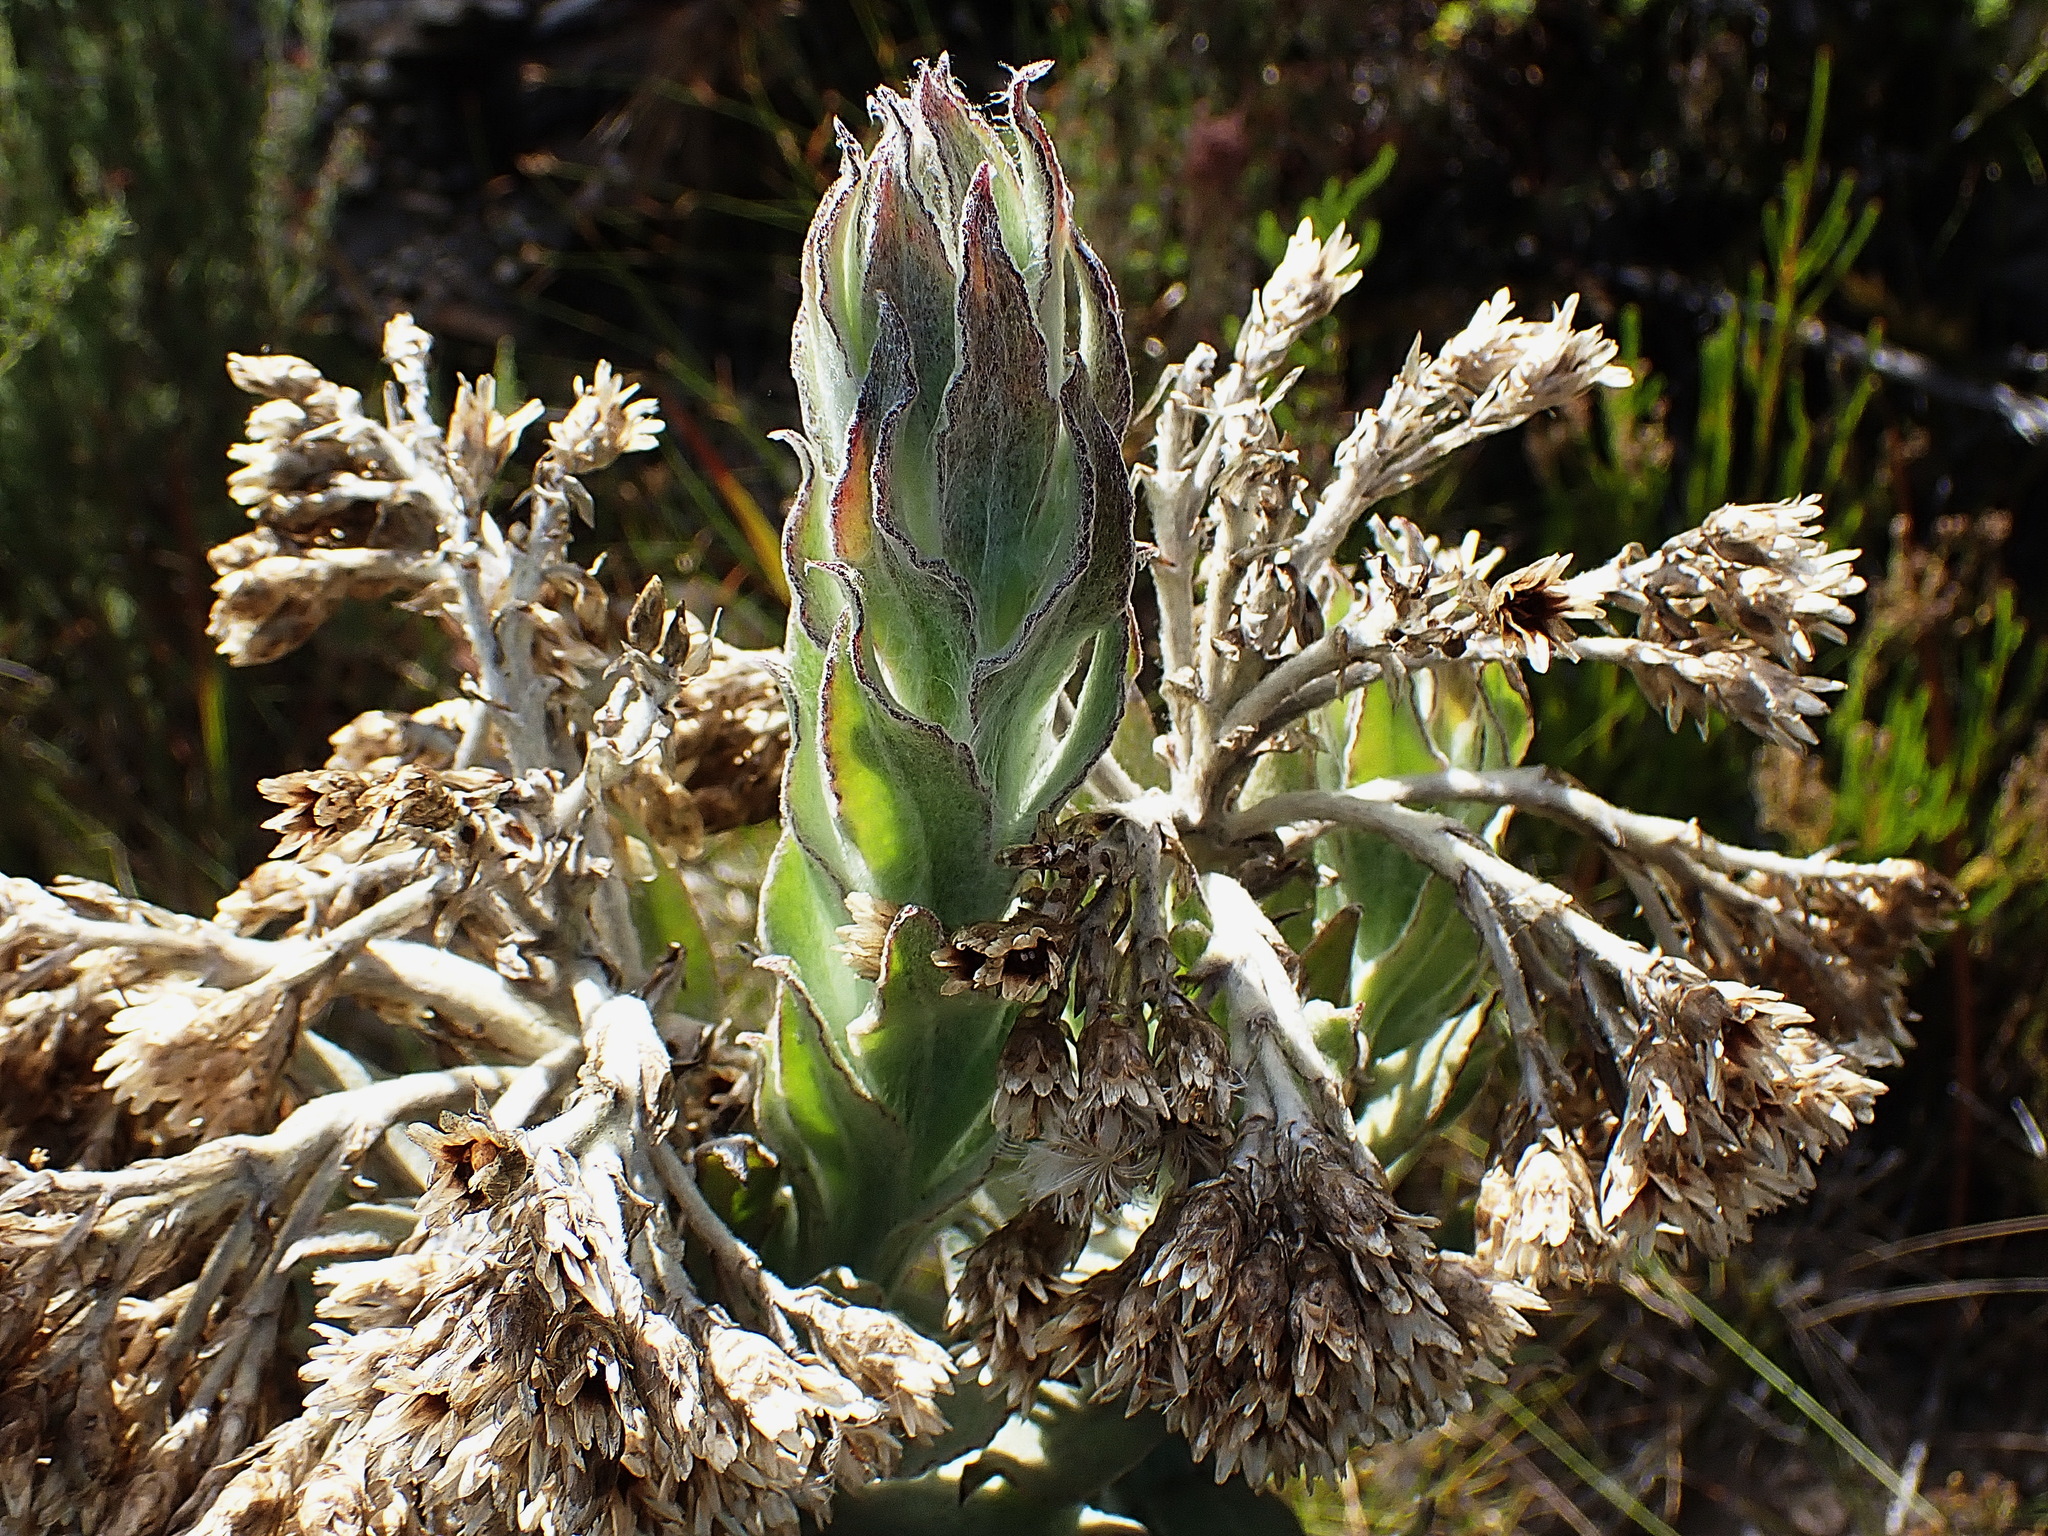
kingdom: Plantae
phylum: Tracheophyta
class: Magnoliopsida
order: Asterales
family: Asteraceae
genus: Syncarpha
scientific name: Syncarpha milleflora
